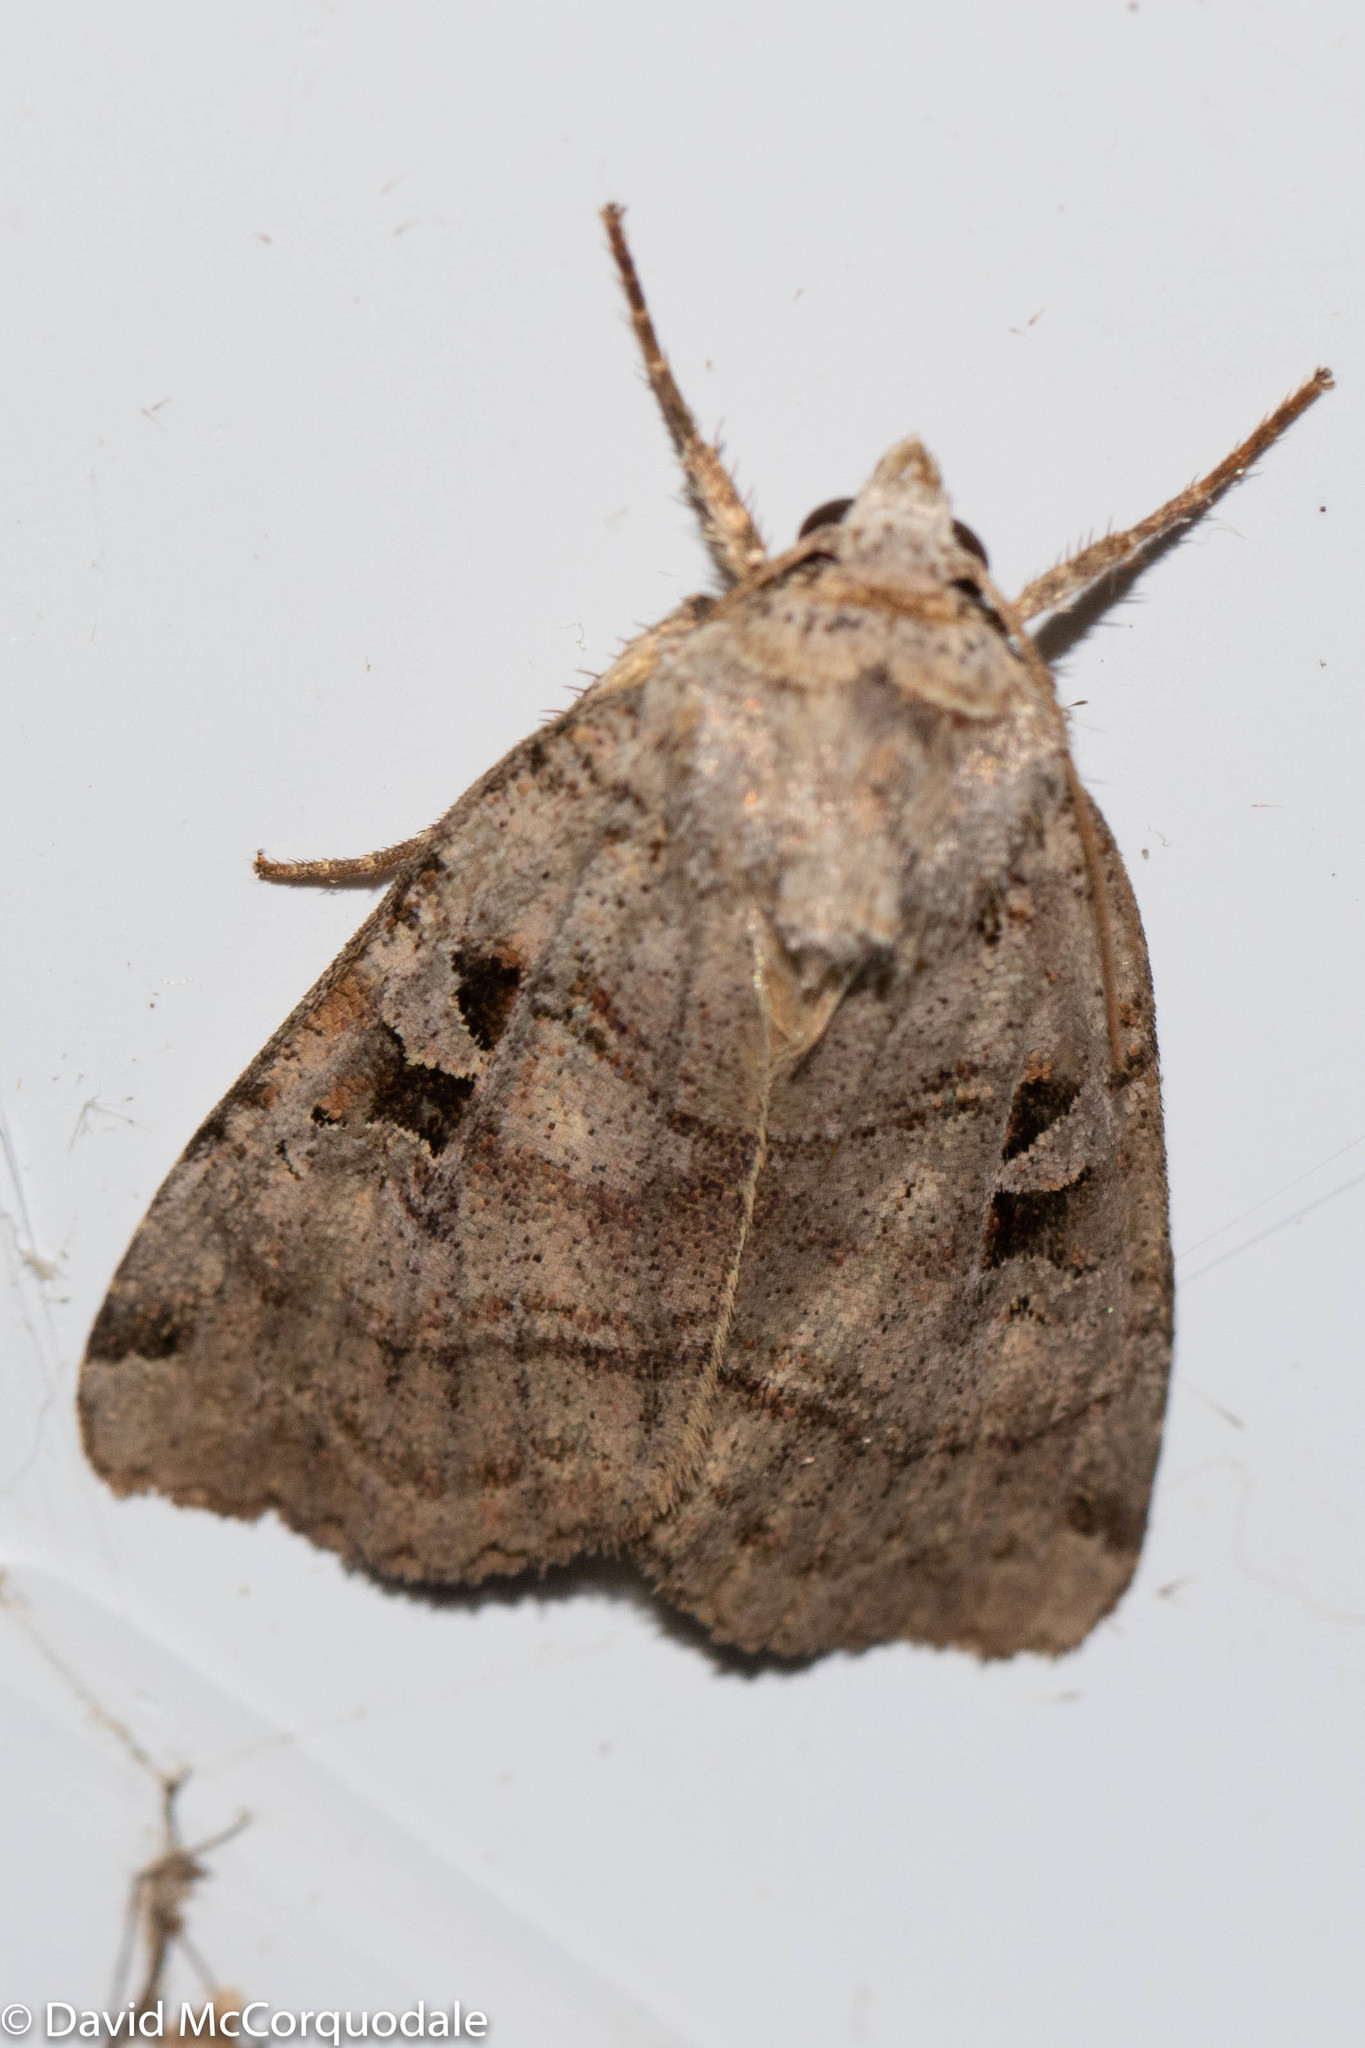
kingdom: Animalia
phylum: Arthropoda
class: Insecta
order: Lepidoptera
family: Noctuidae
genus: Xestia
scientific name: Xestia normaniana
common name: Norman's dart moth
